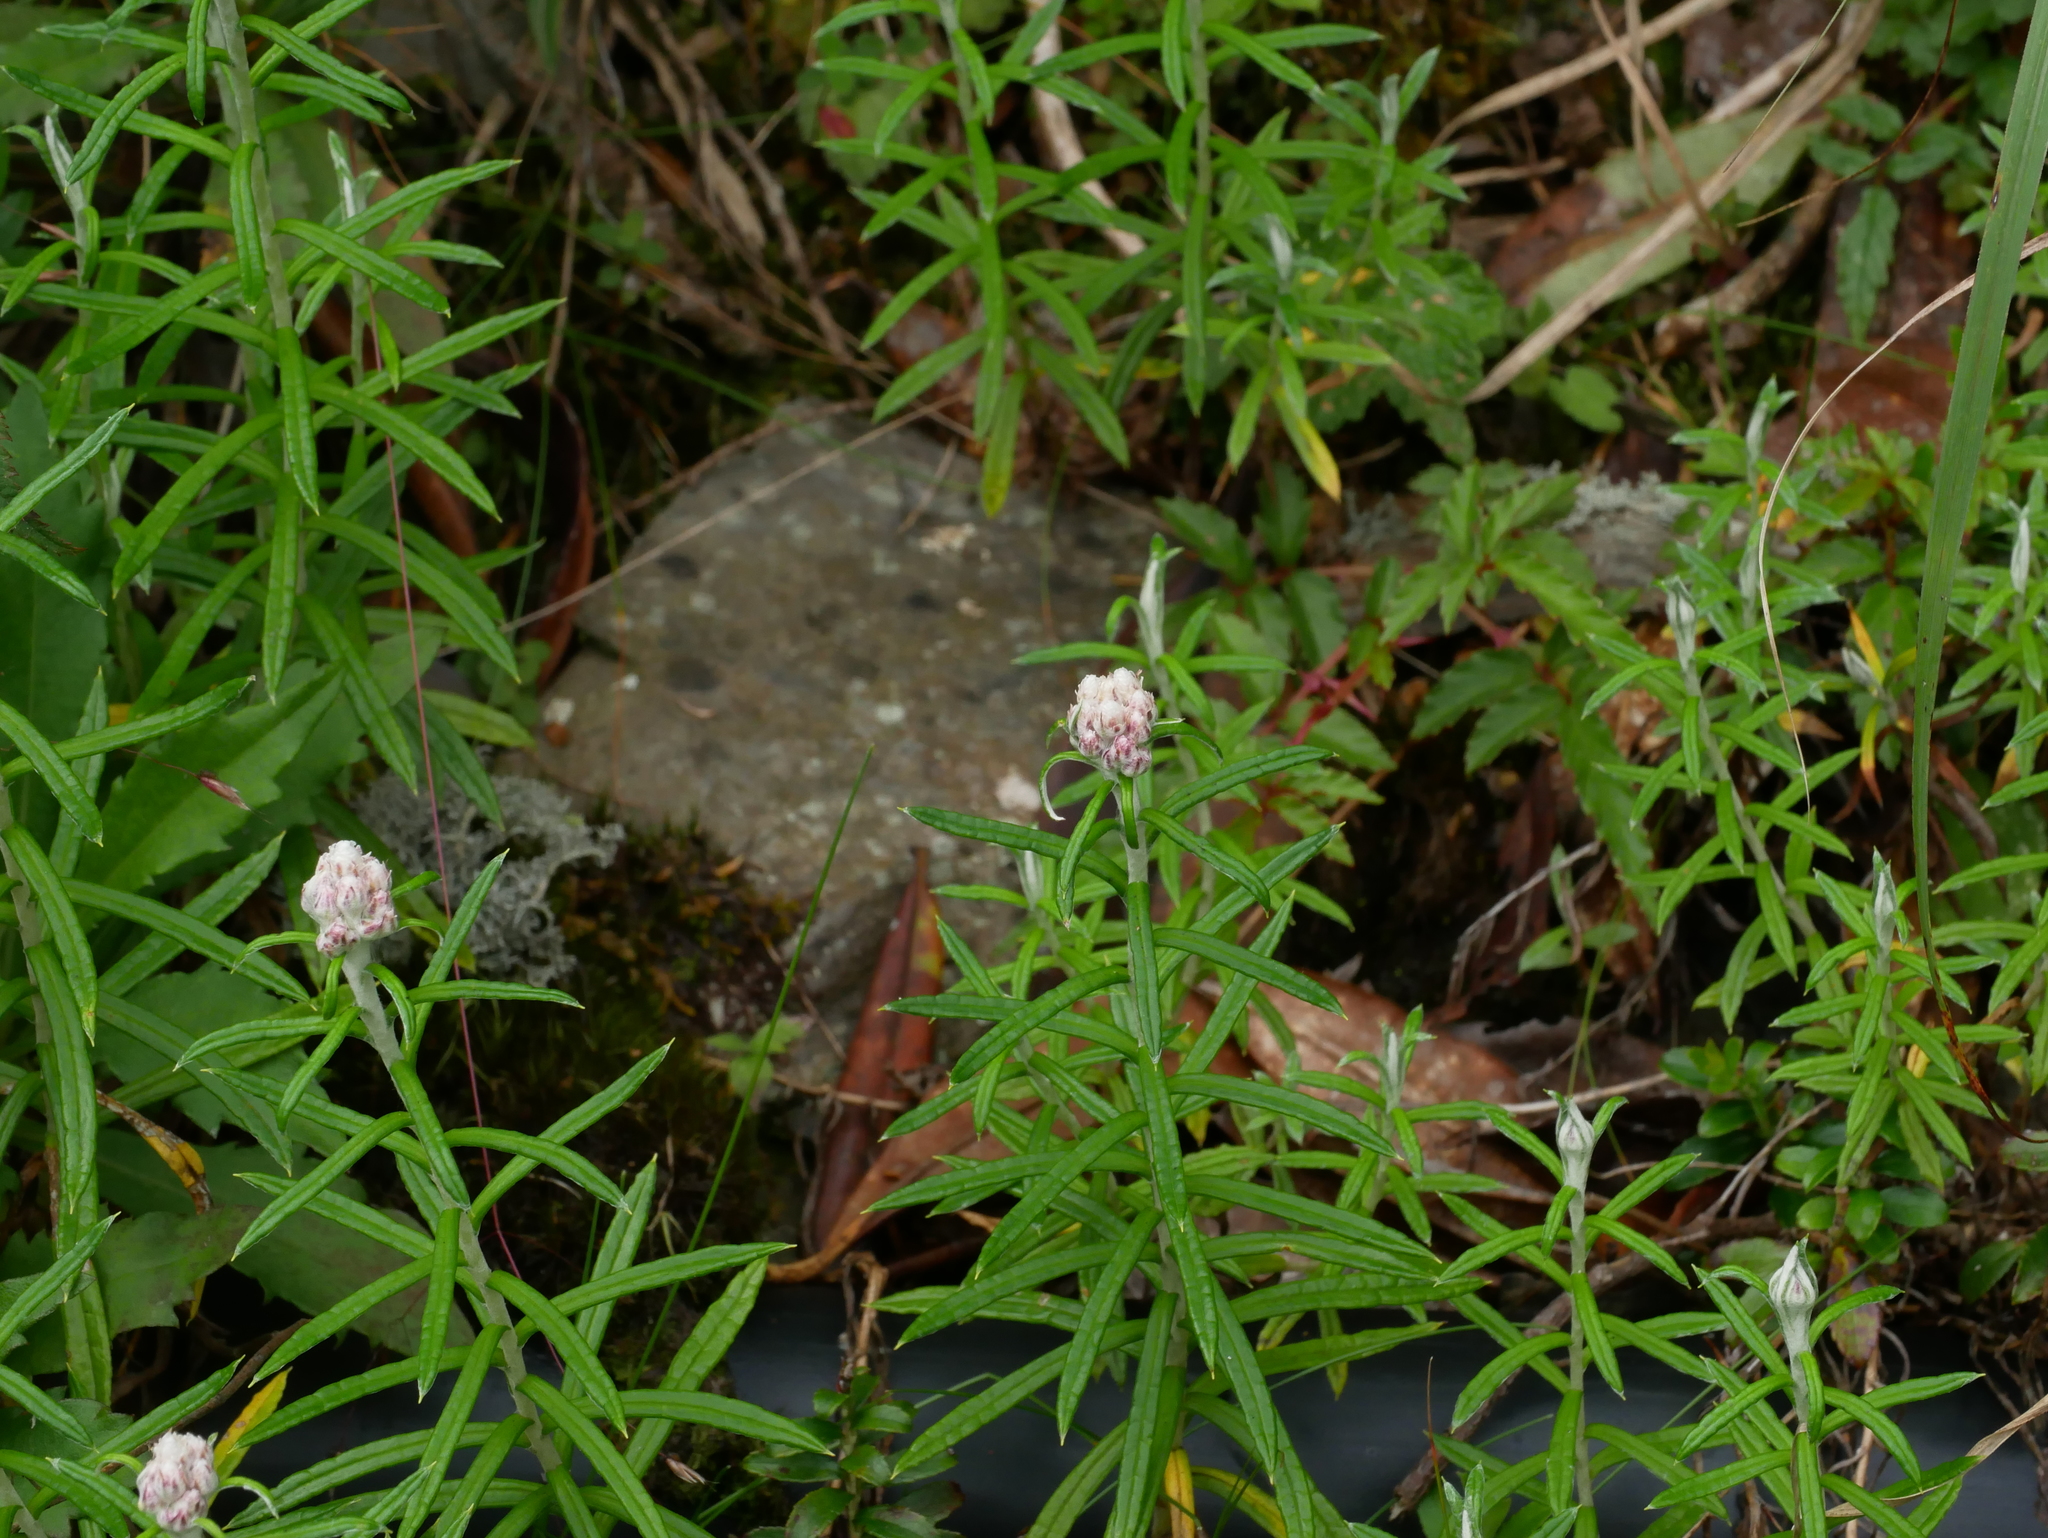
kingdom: Plantae
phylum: Tracheophyta
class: Magnoliopsida
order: Asterales
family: Asteraceae
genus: Anaphalis
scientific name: Anaphalis morrisonicola
